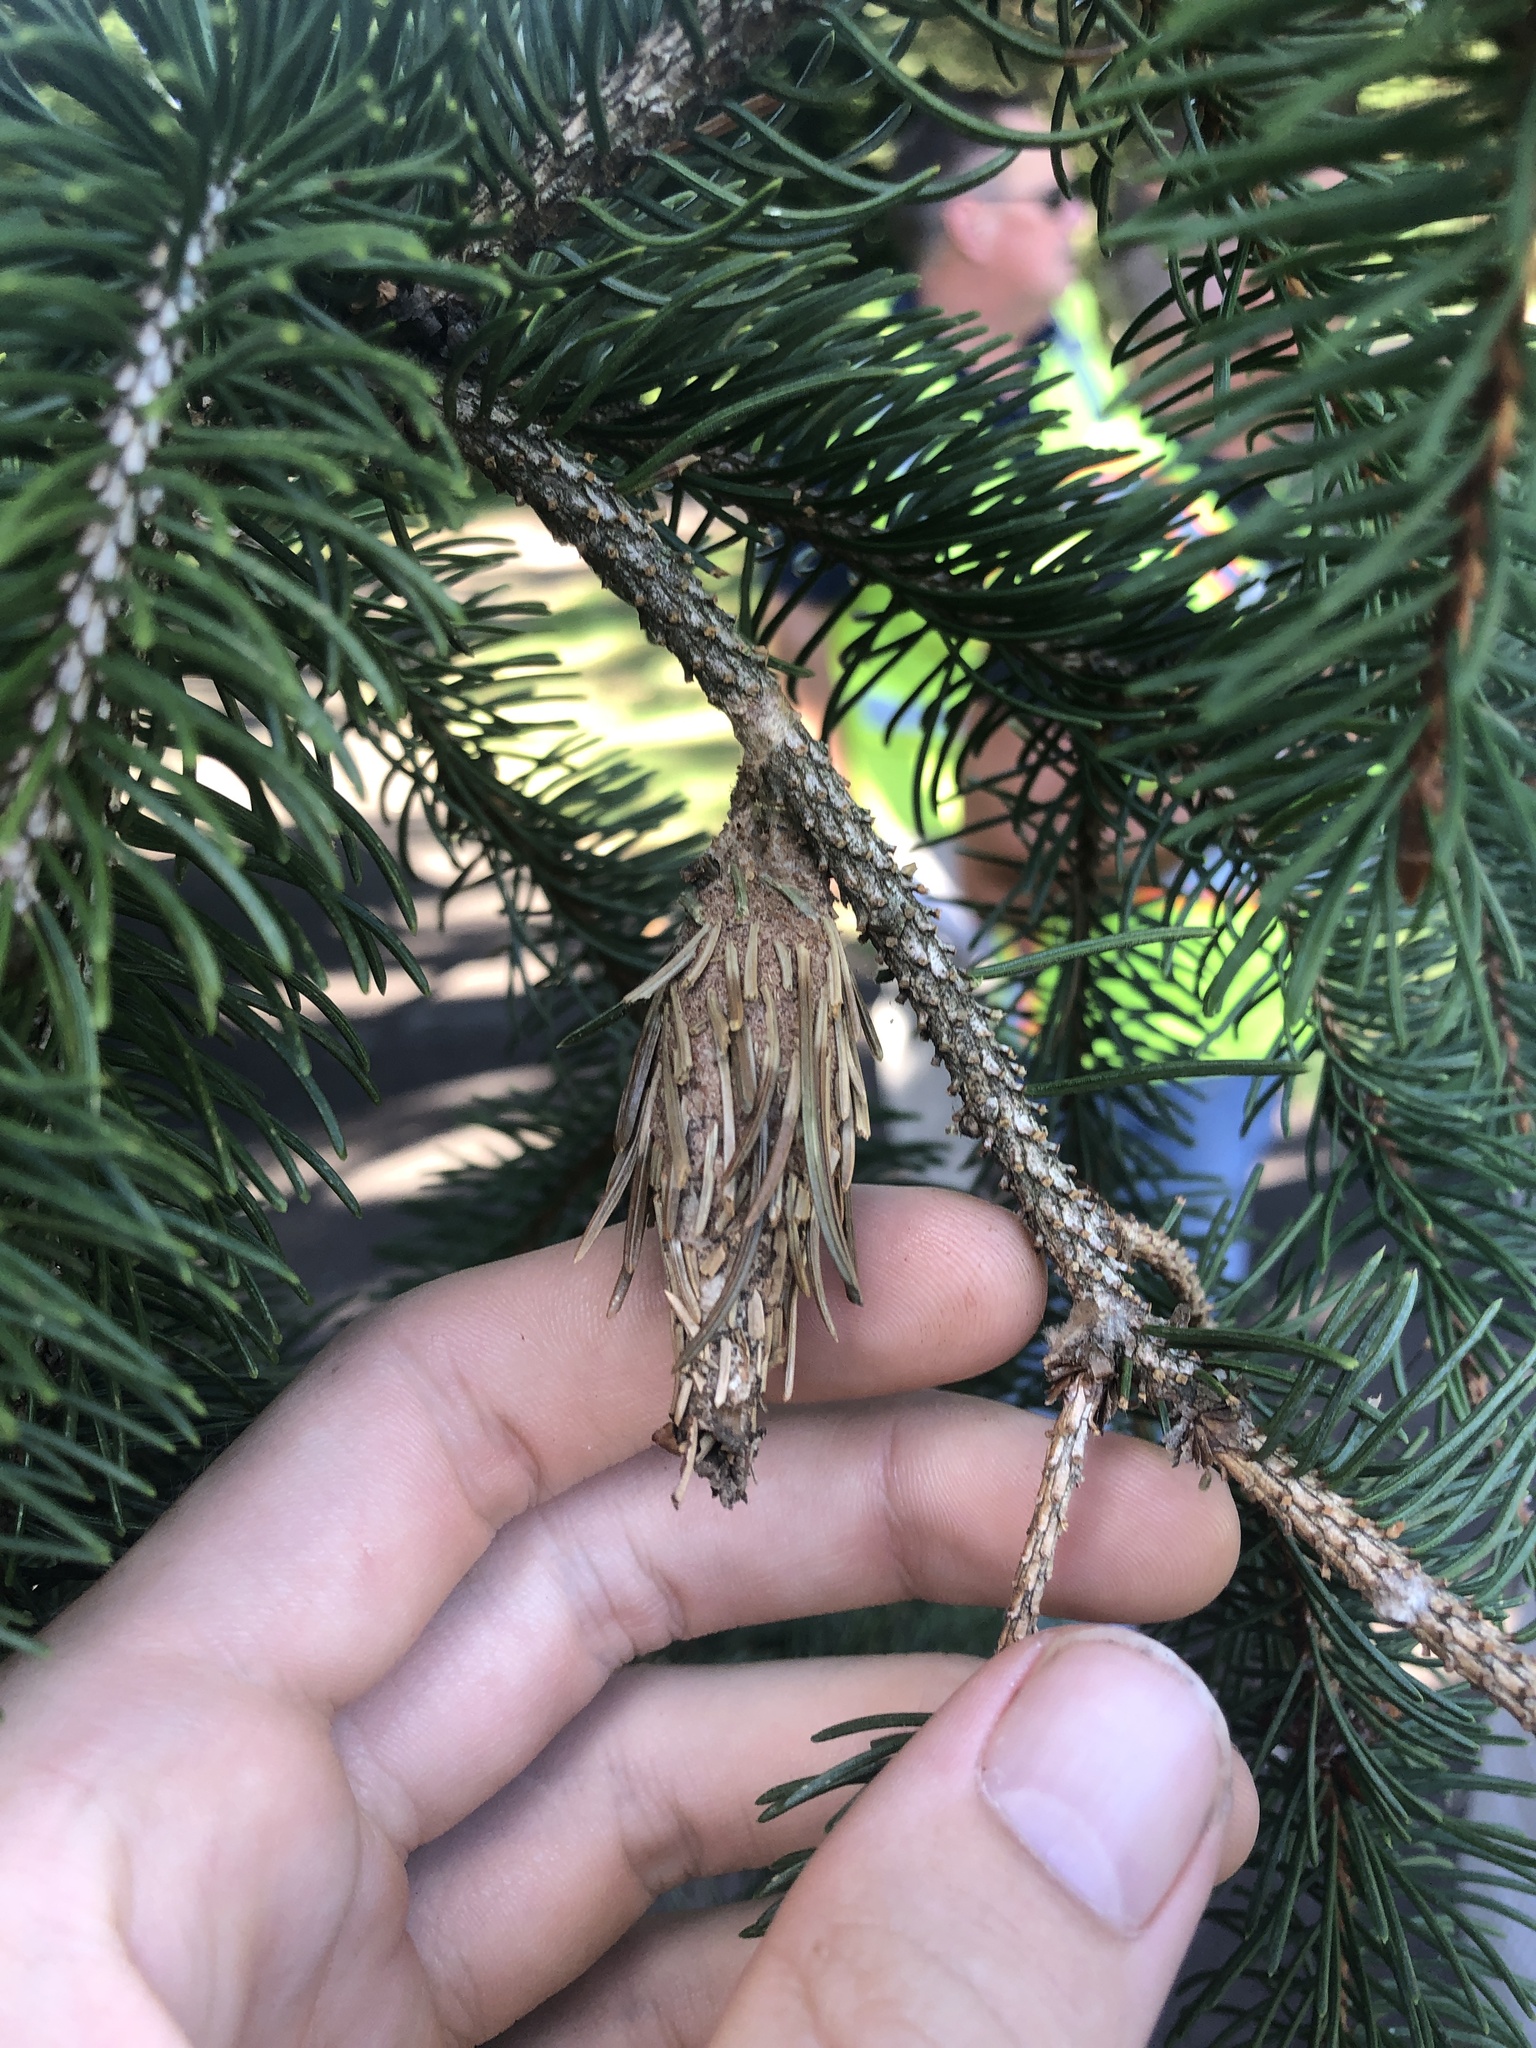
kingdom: Animalia
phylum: Arthropoda
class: Insecta
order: Lepidoptera
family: Psychidae
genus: Thyridopteryx
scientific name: Thyridopteryx ephemeraeformis
